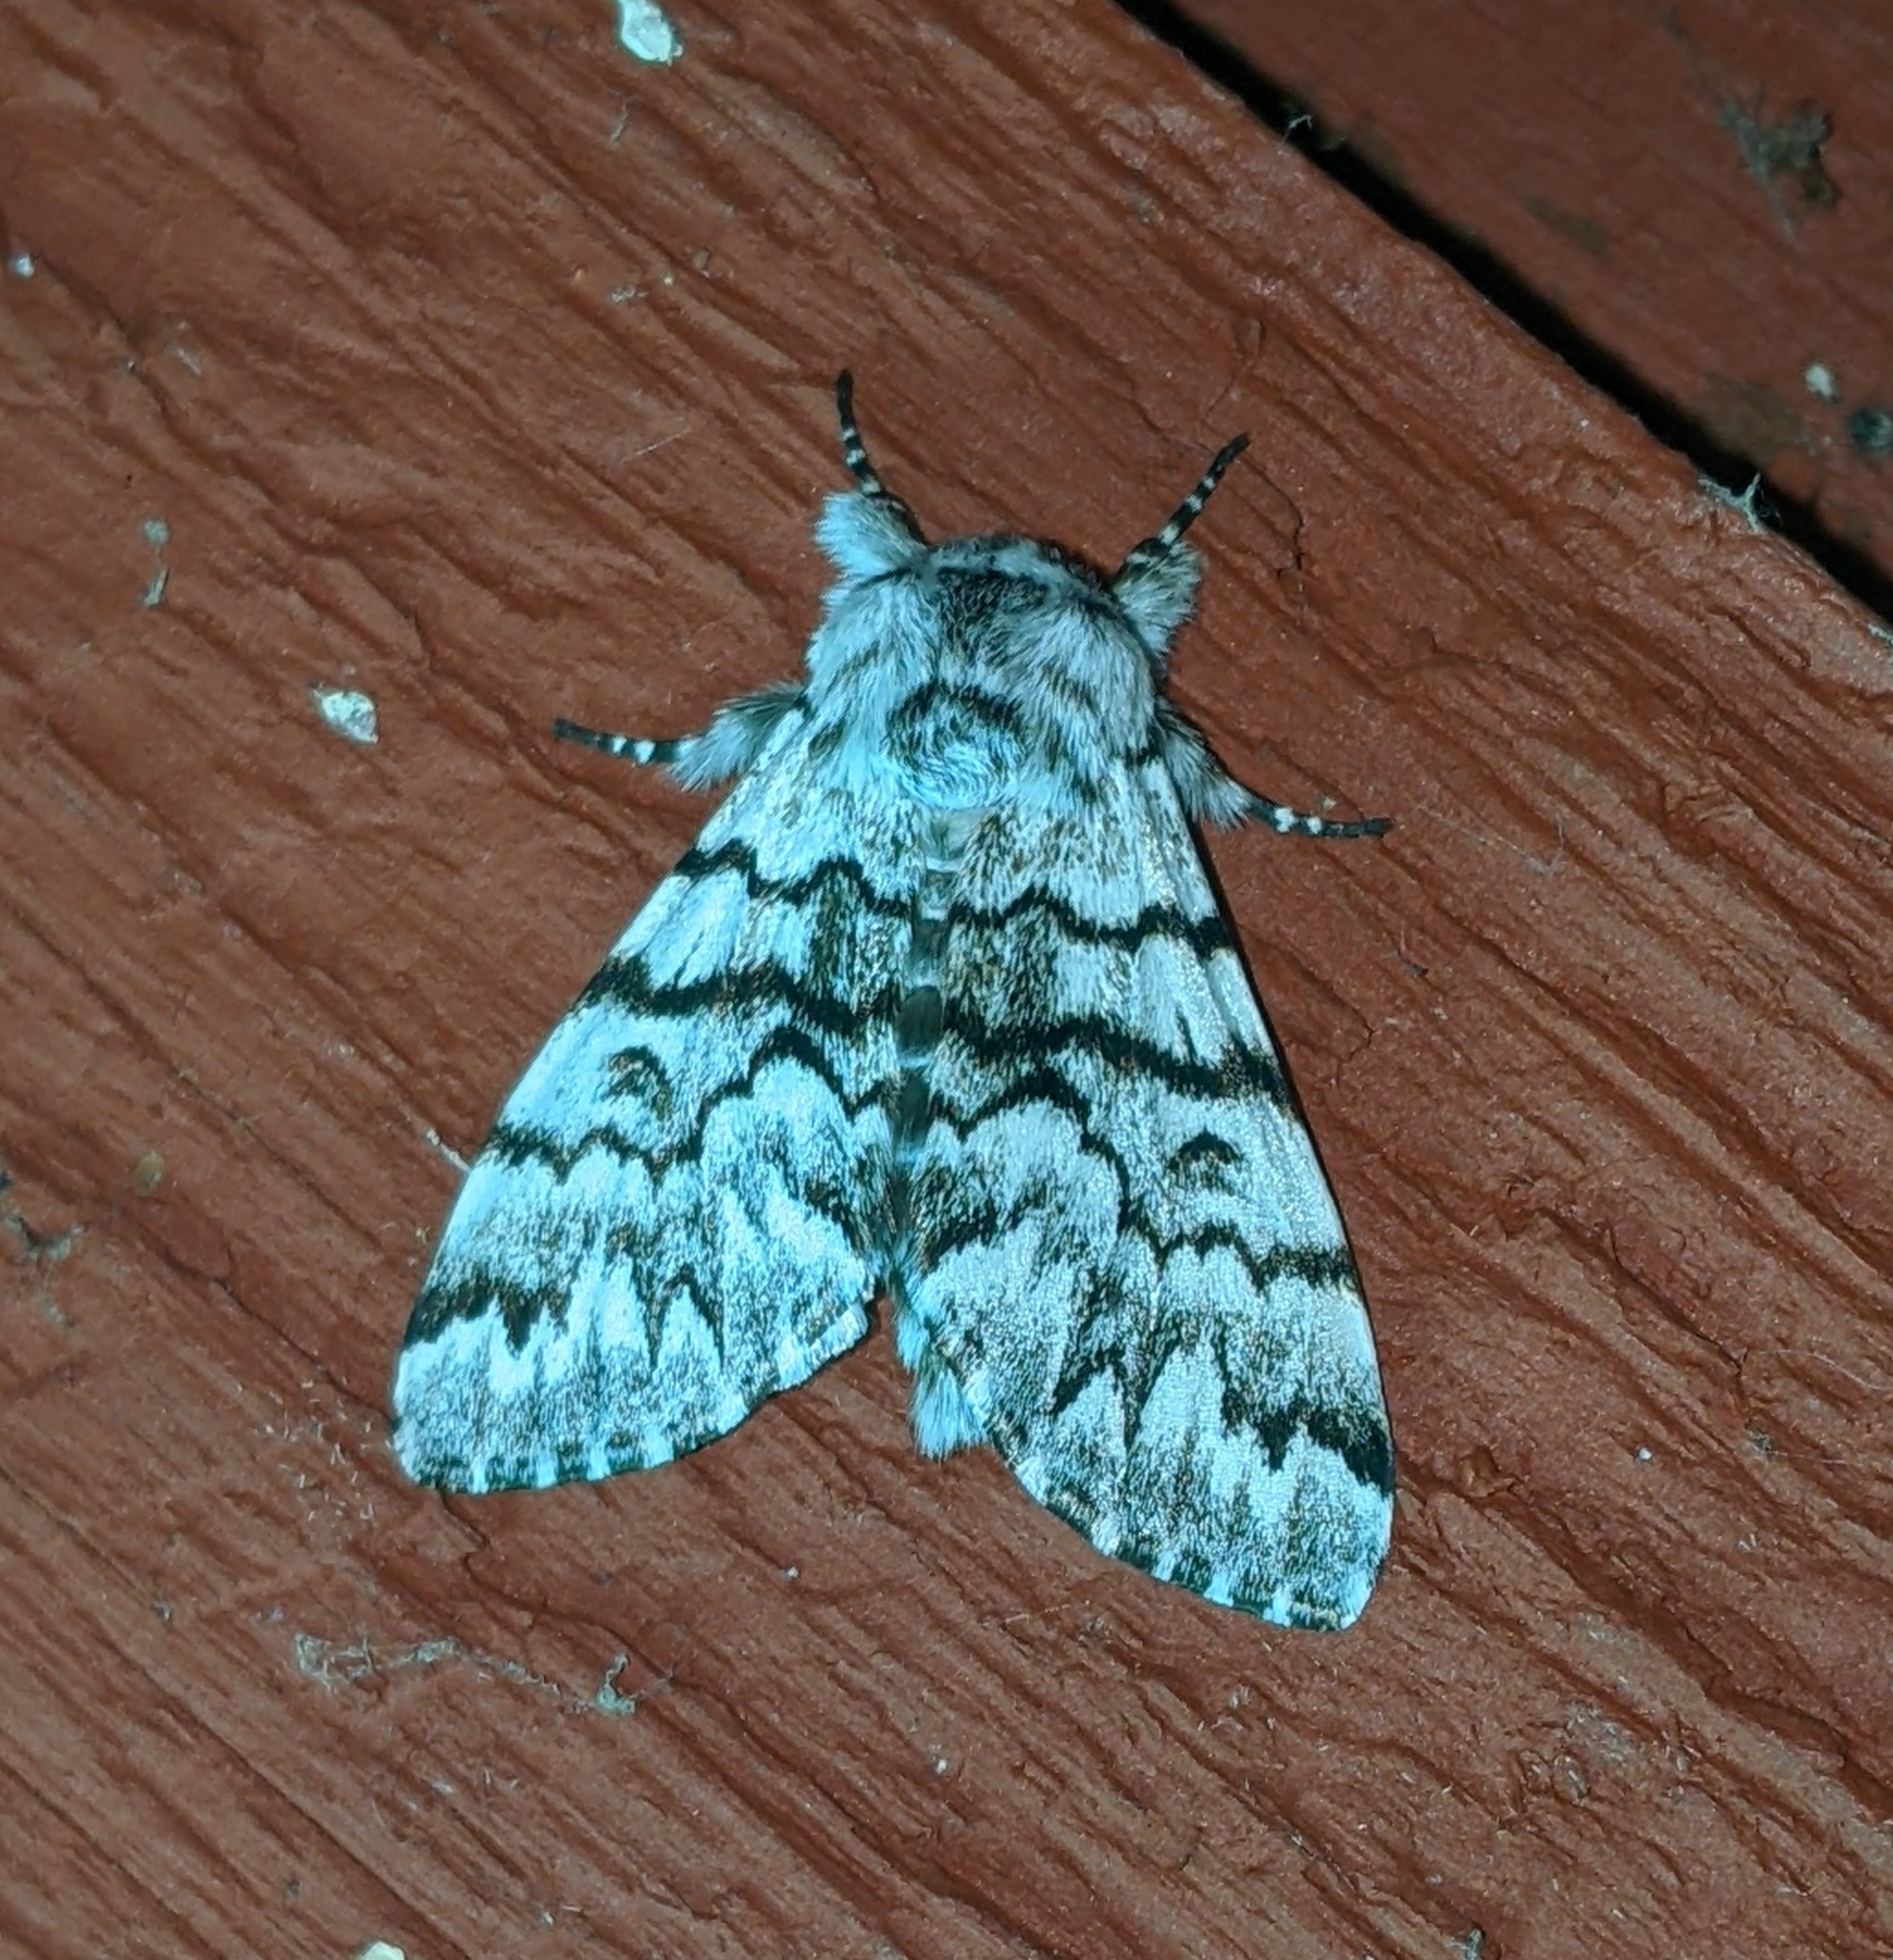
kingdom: Animalia
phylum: Arthropoda
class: Insecta
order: Lepidoptera
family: Noctuidae
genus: Panthea
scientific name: Panthea virginarius
